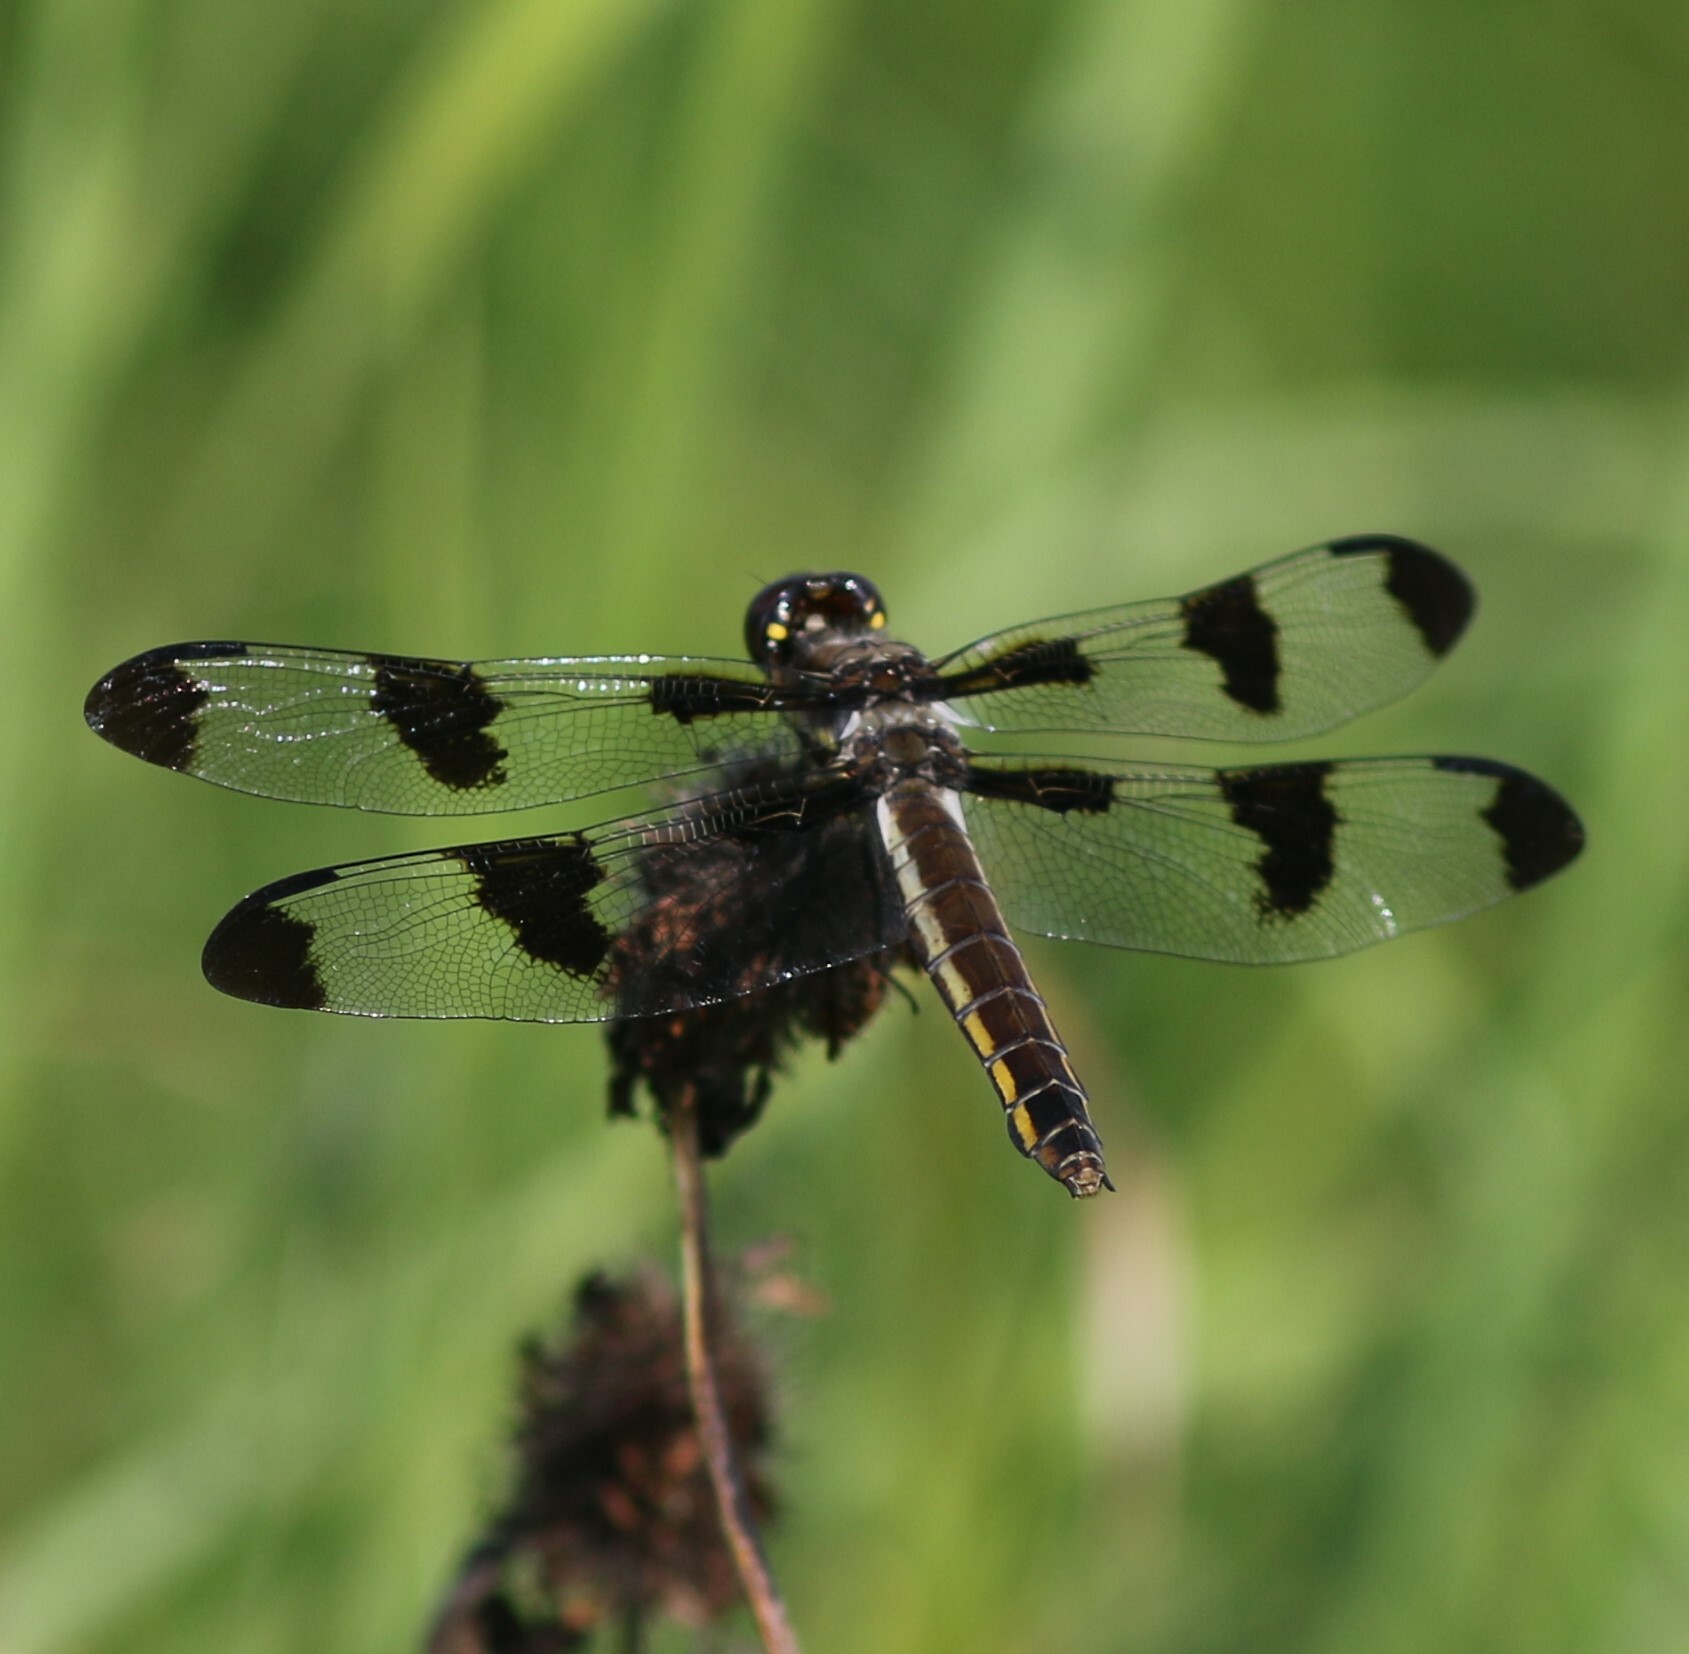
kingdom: Animalia
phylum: Arthropoda
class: Insecta
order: Odonata
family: Libellulidae
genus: Libellula
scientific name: Libellula pulchella
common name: Twelve-spotted skimmer
